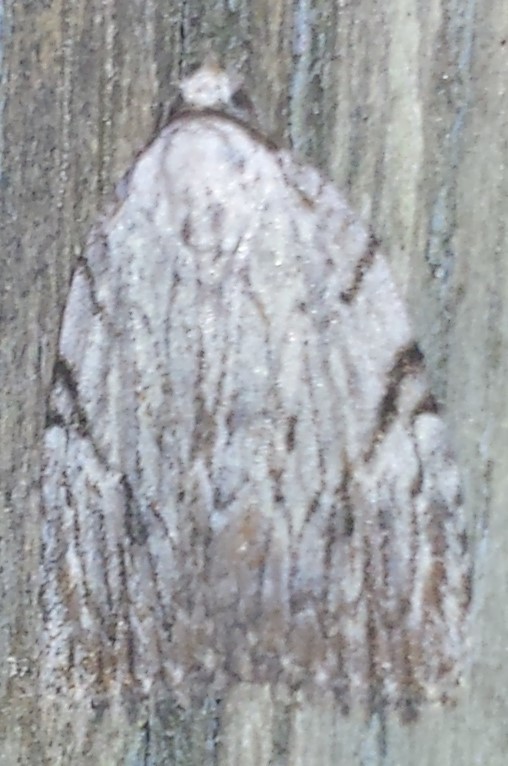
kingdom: Animalia
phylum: Arthropoda
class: Insecta
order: Lepidoptera
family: Noctuidae
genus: Balsa
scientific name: Balsa tristrigella
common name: Three-lined balsa moth
